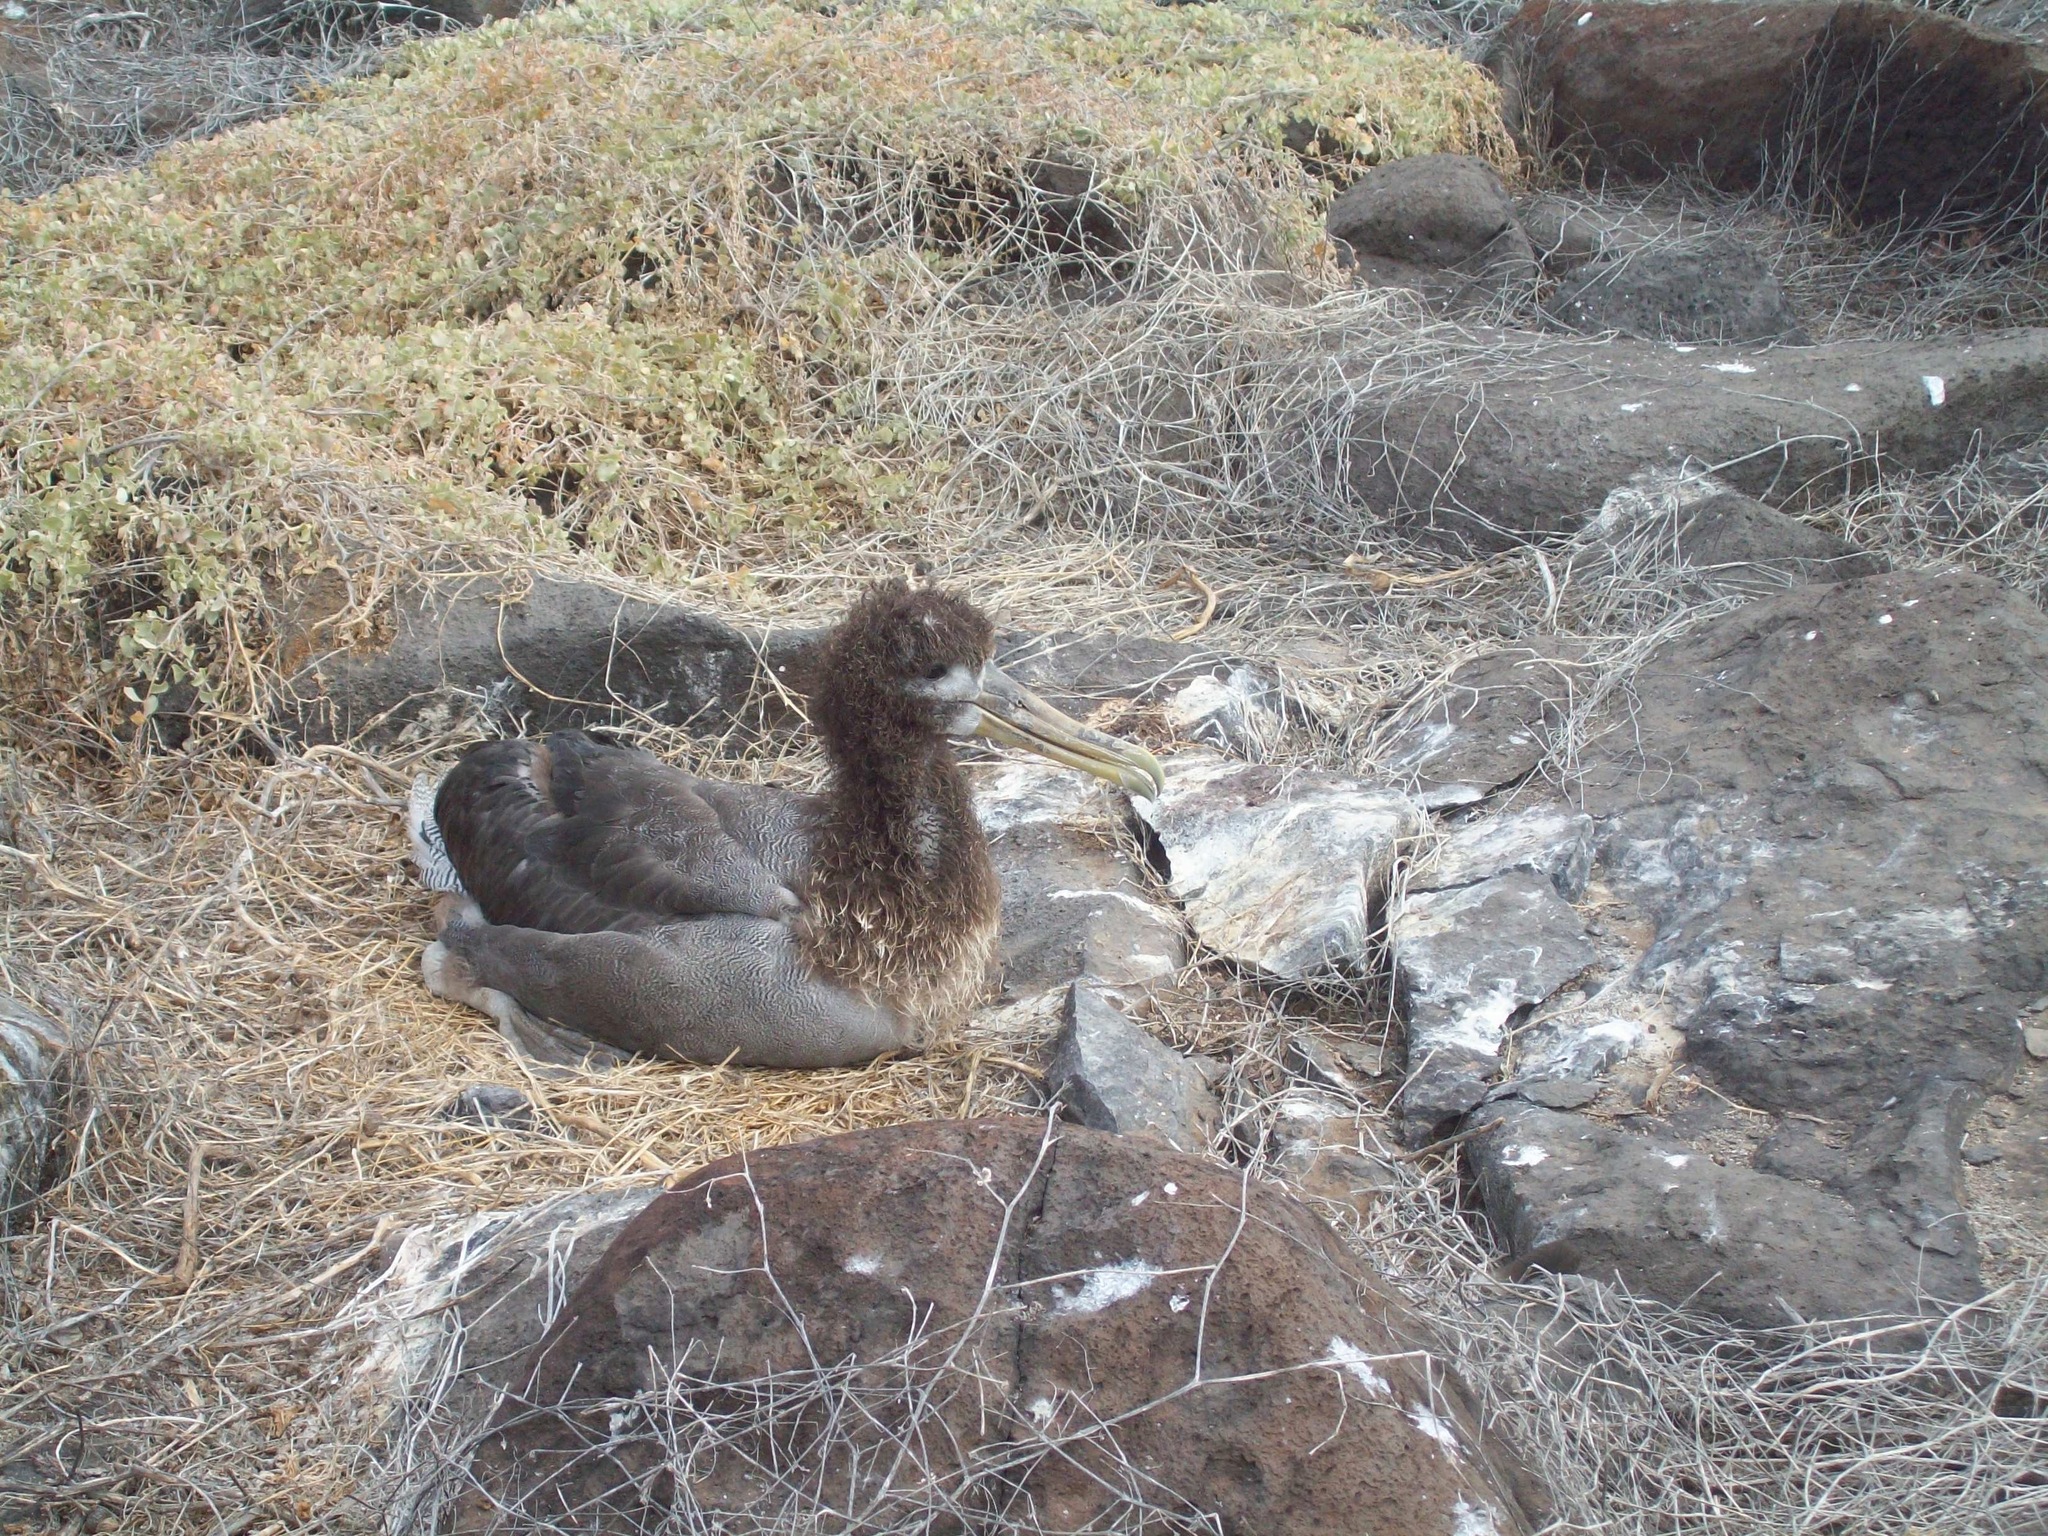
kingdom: Animalia
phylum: Chordata
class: Aves
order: Procellariiformes
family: Diomedeidae
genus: Phoebastria
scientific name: Phoebastria irrorata
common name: Waved albatross
